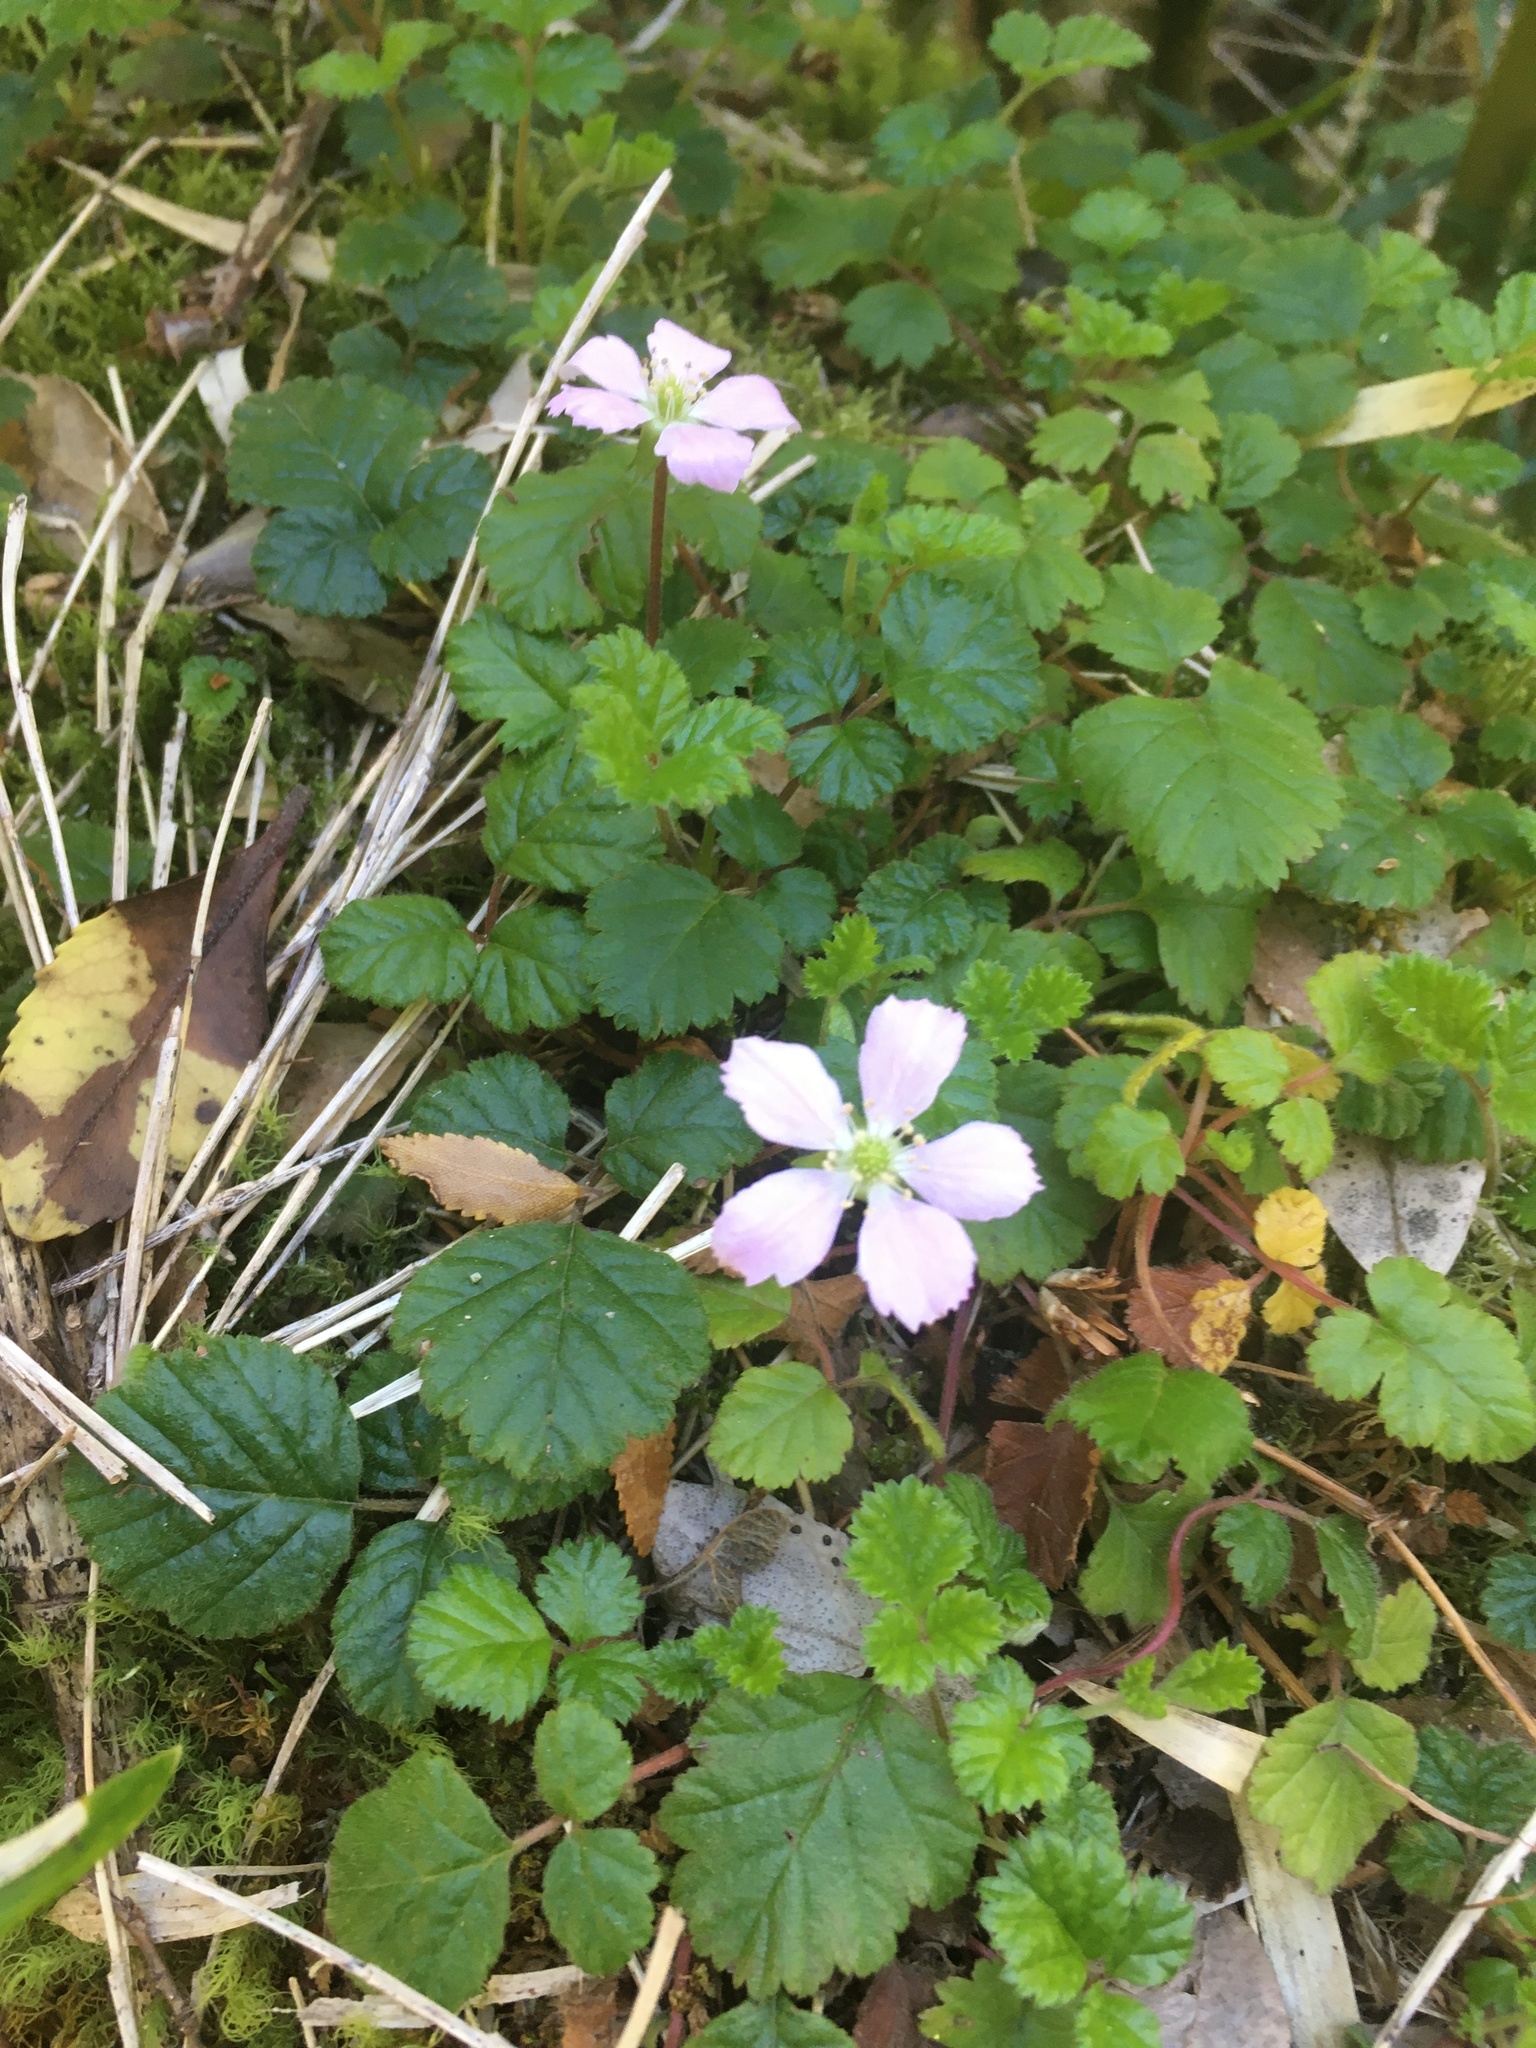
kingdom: Plantae
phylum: Tracheophyta
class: Magnoliopsida
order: Rosales
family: Rosaceae
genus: Rubus
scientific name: Rubus radicans
